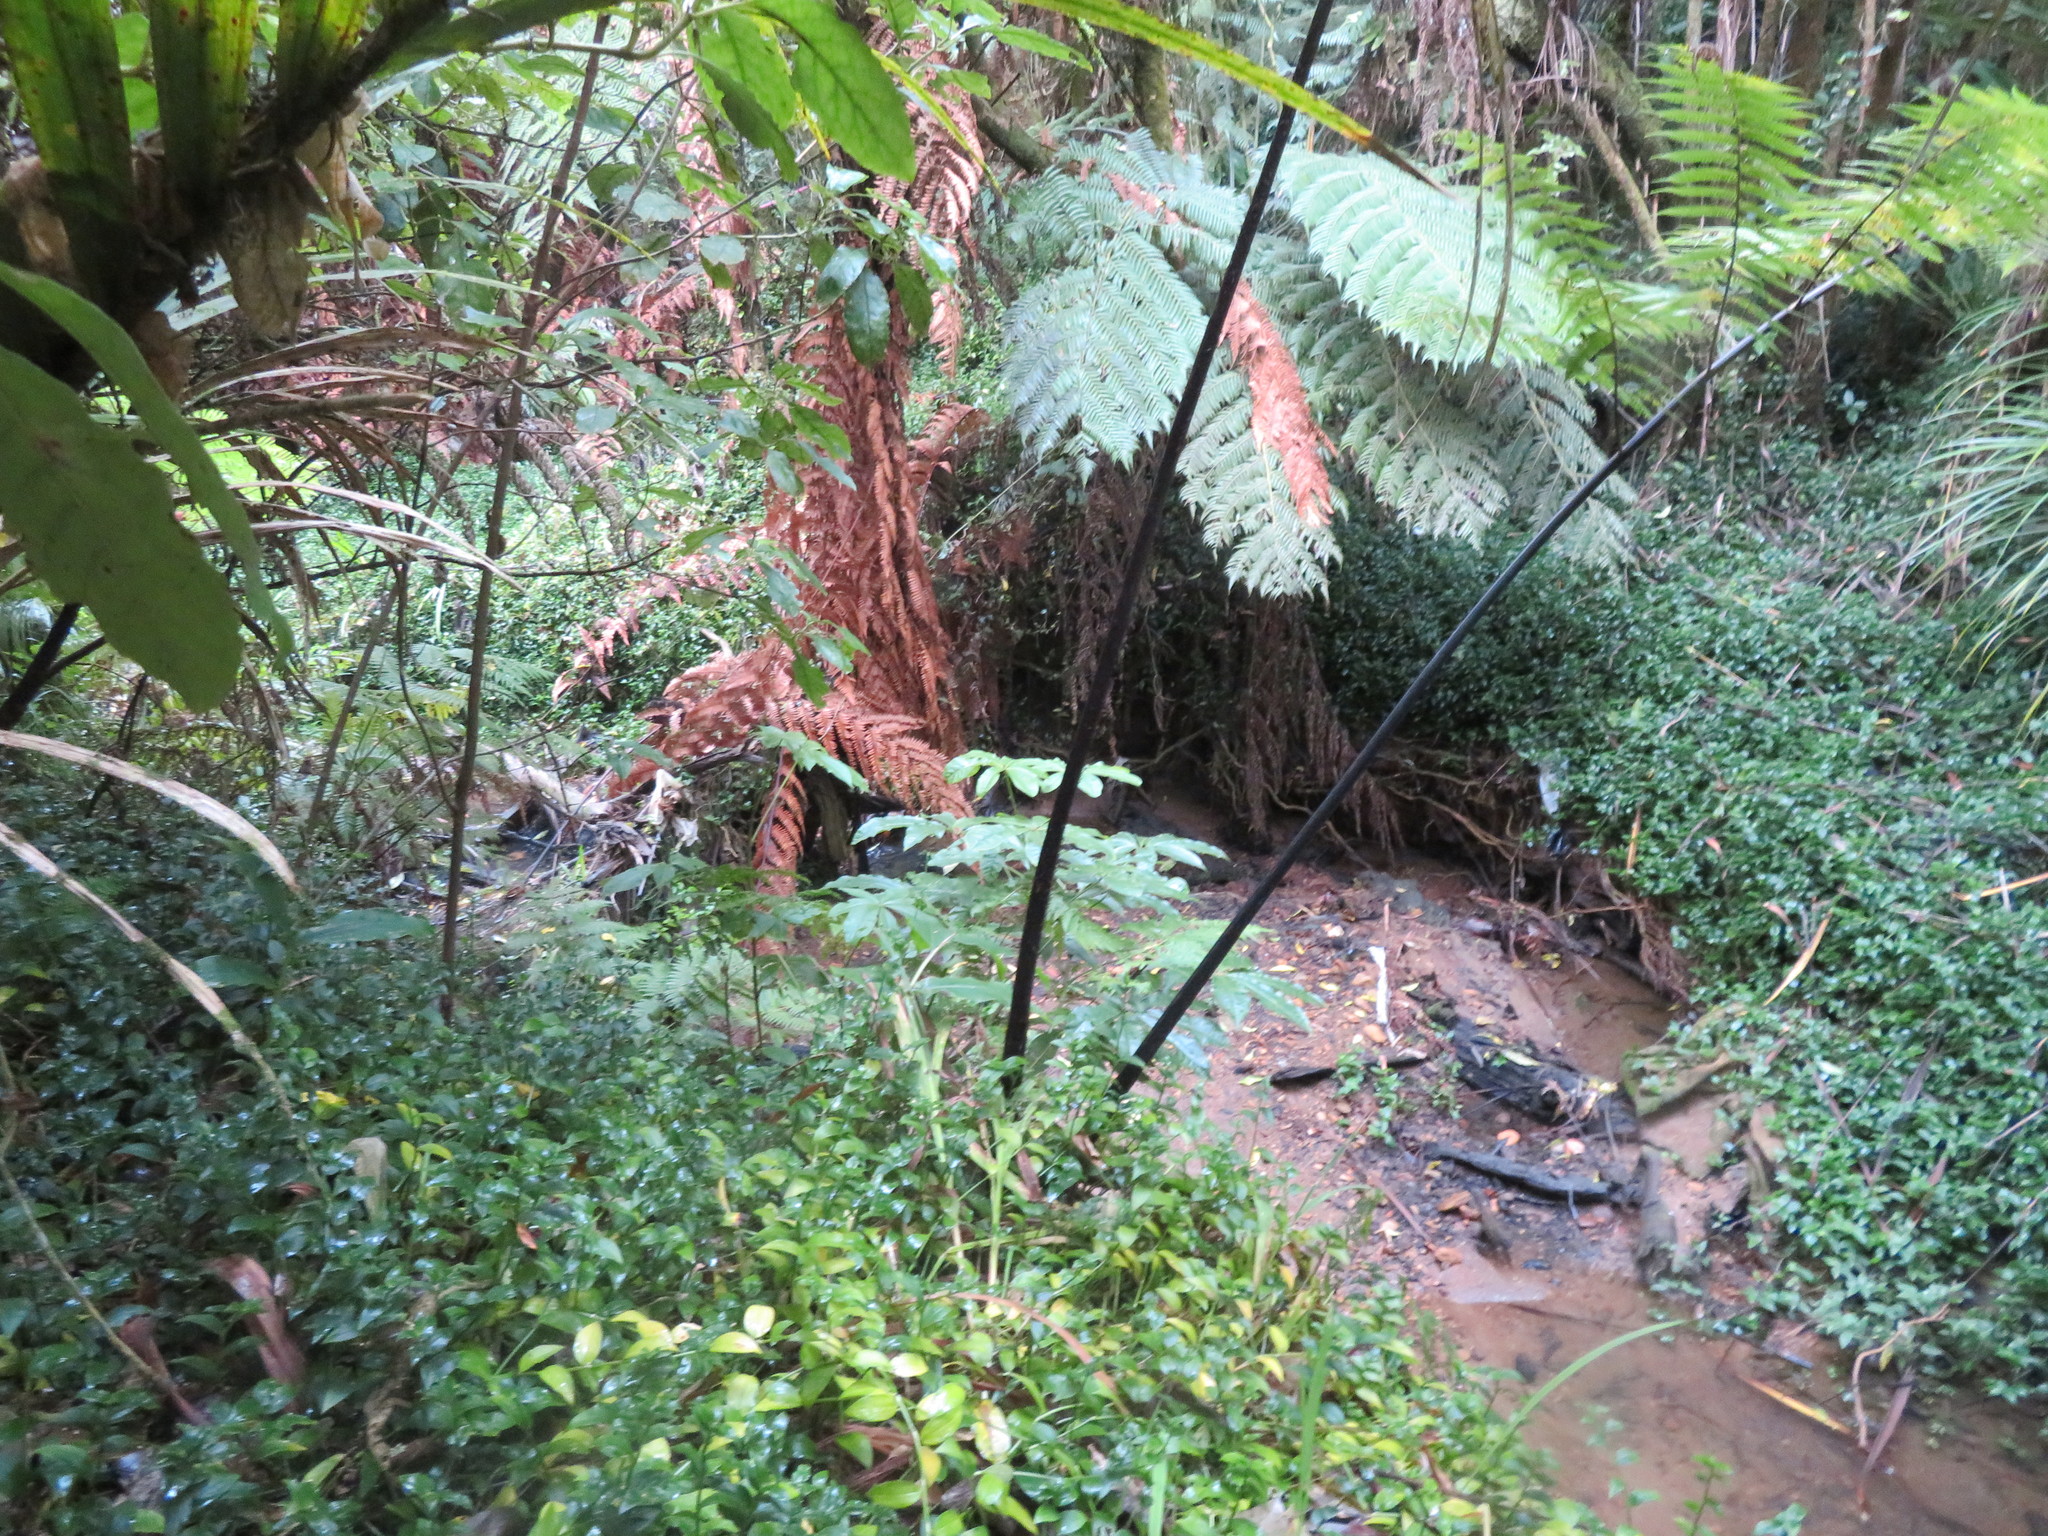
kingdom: Plantae
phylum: Tracheophyta
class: Liliopsida
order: Commelinales
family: Commelinaceae
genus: Tradescantia
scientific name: Tradescantia fluminensis
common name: Wandering-jew
